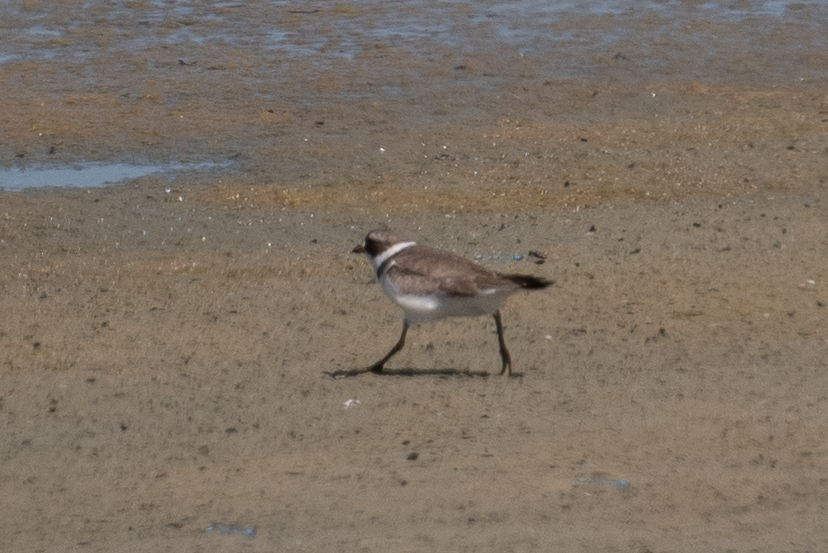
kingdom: Animalia
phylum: Chordata
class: Aves
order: Charadriiformes
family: Charadriidae
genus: Charadrius
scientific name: Charadrius semipalmatus
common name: Semipalmated plover
